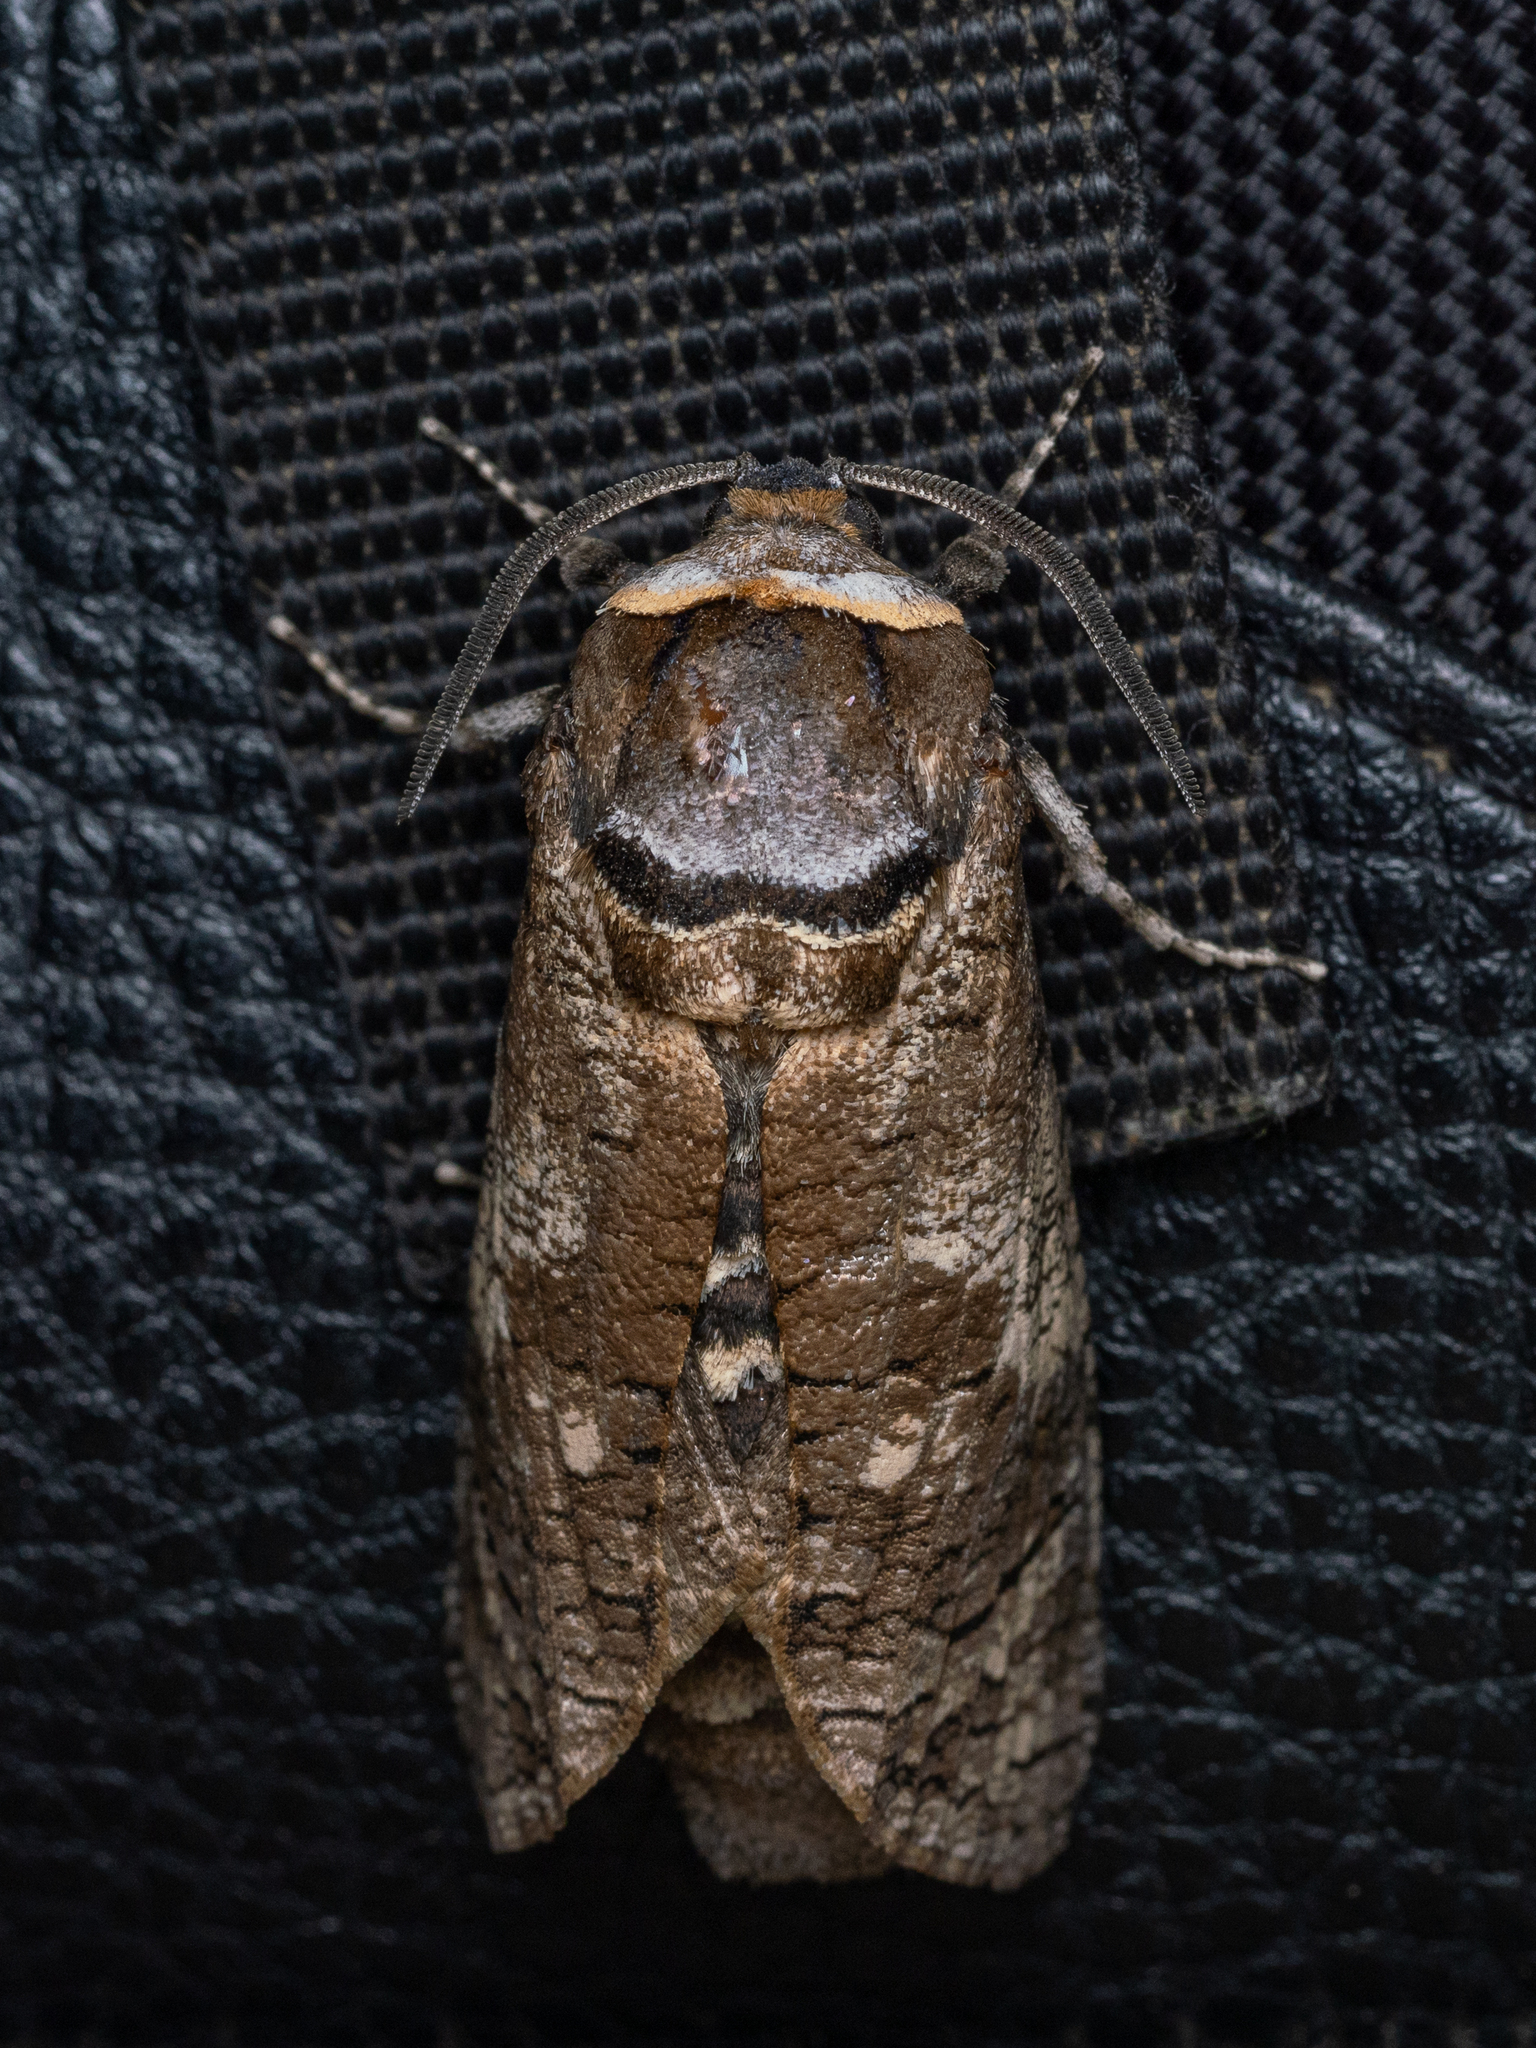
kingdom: Animalia
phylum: Arthropoda
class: Insecta
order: Lepidoptera
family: Cossidae
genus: Cossus
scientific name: Cossus cossus
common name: Goat moth
